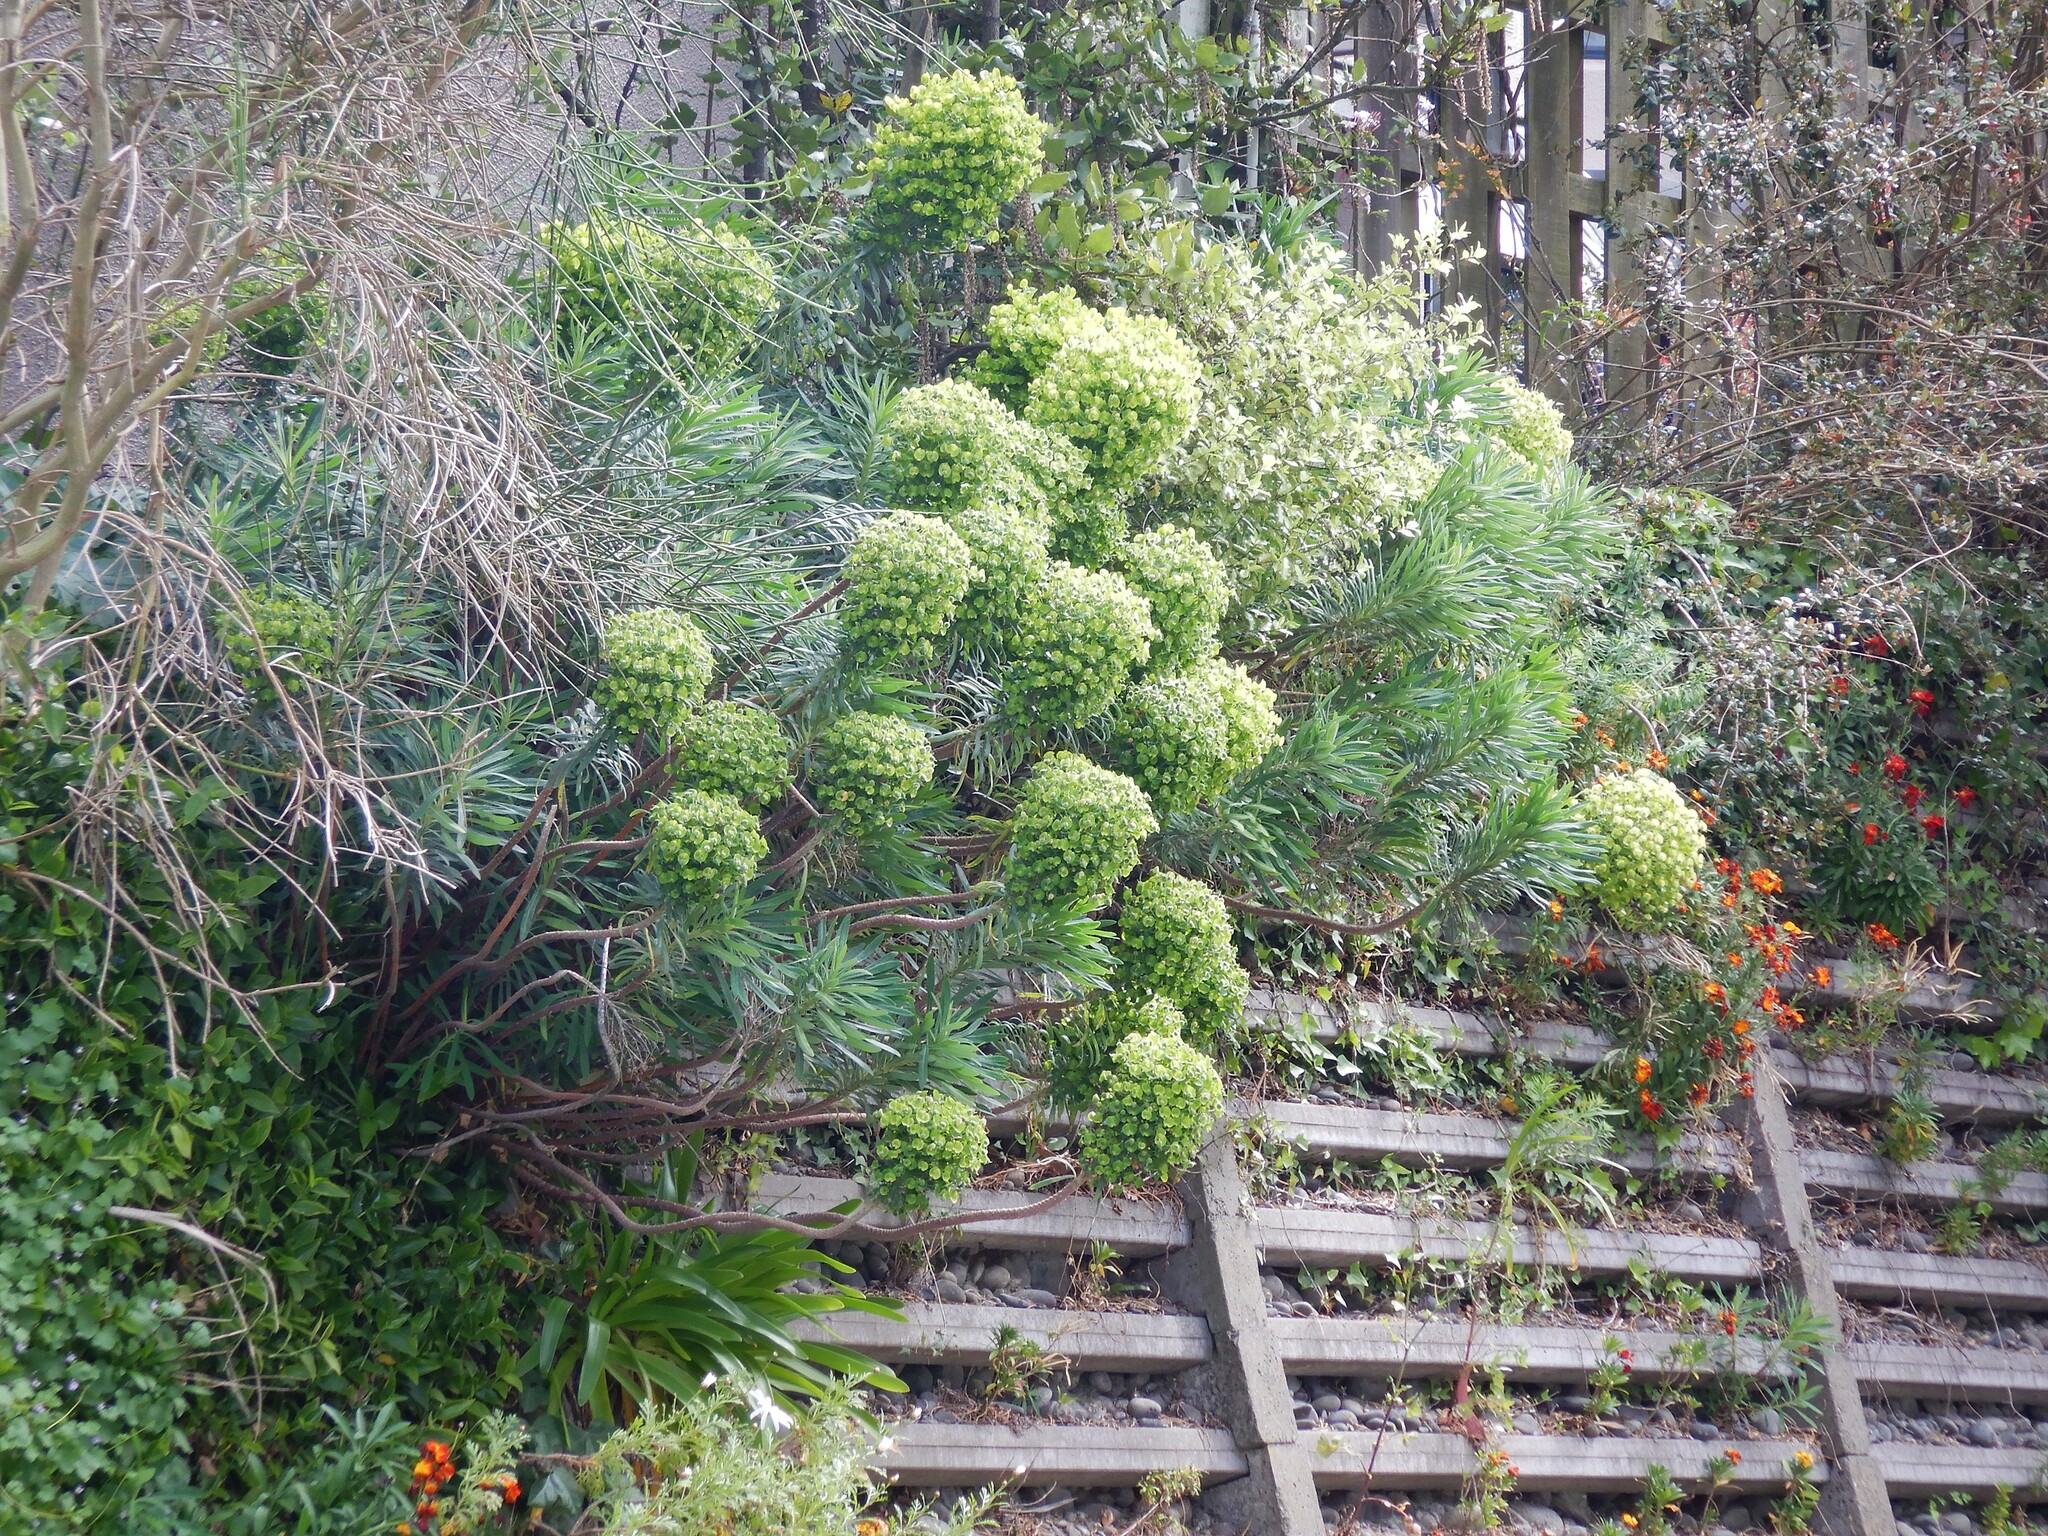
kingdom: Plantae
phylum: Tracheophyta
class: Magnoliopsida
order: Malpighiales
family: Euphorbiaceae
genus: Euphorbia
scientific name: Euphorbia characias
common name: Mediterranean spurge
